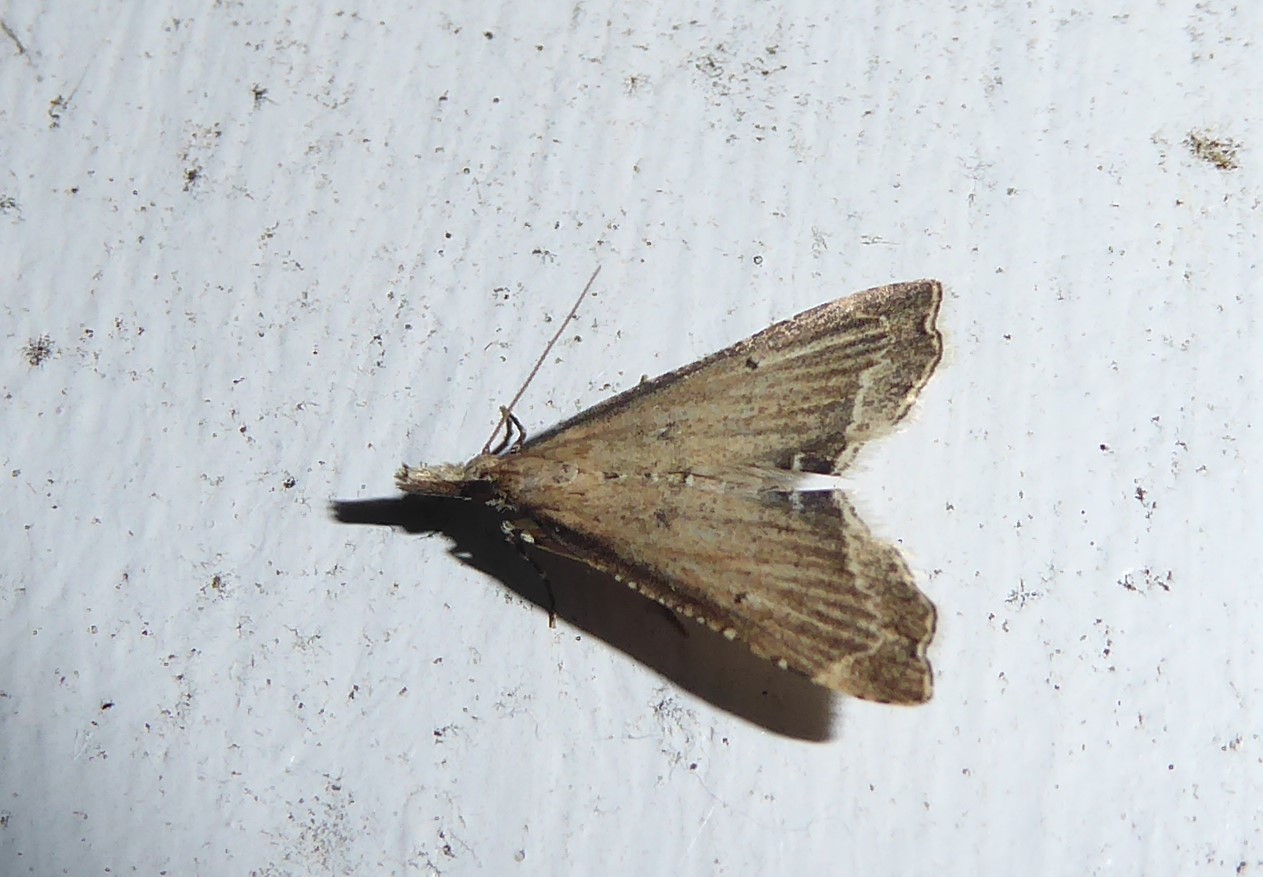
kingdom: Animalia
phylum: Arthropoda
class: Insecta
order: Lepidoptera
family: Crambidae
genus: Diplopseustis
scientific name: Diplopseustis perieresalis
